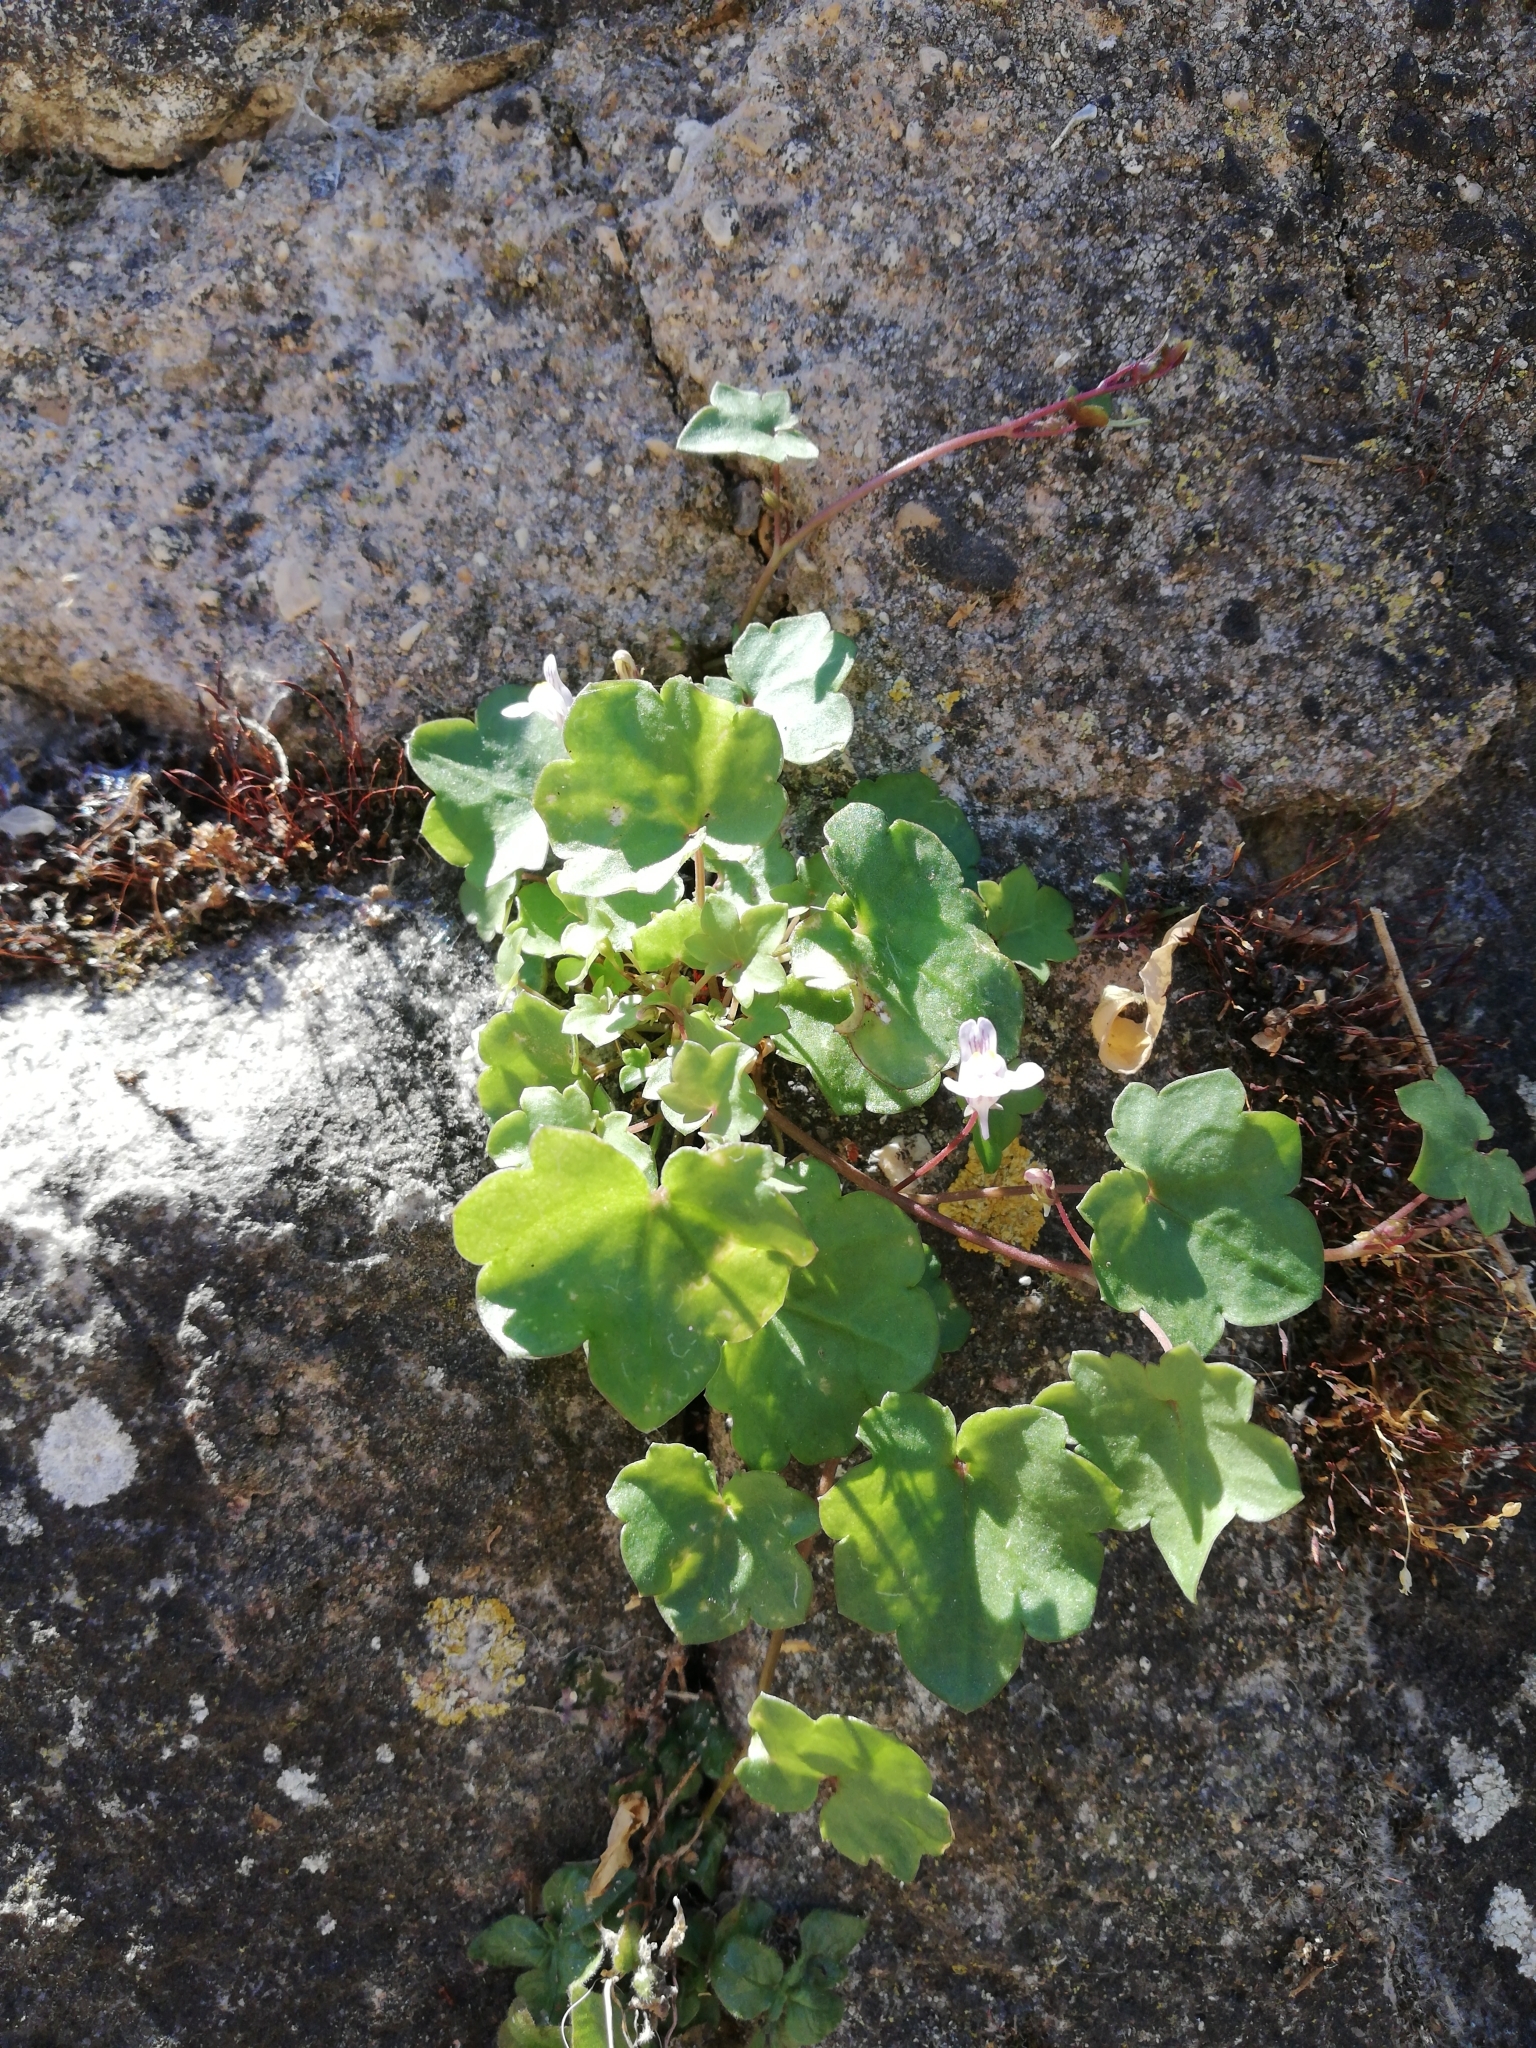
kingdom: Plantae
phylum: Tracheophyta
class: Magnoliopsida
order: Lamiales
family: Plantaginaceae
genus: Cymbalaria
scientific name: Cymbalaria muralis
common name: Ivy-leaved toadflax
